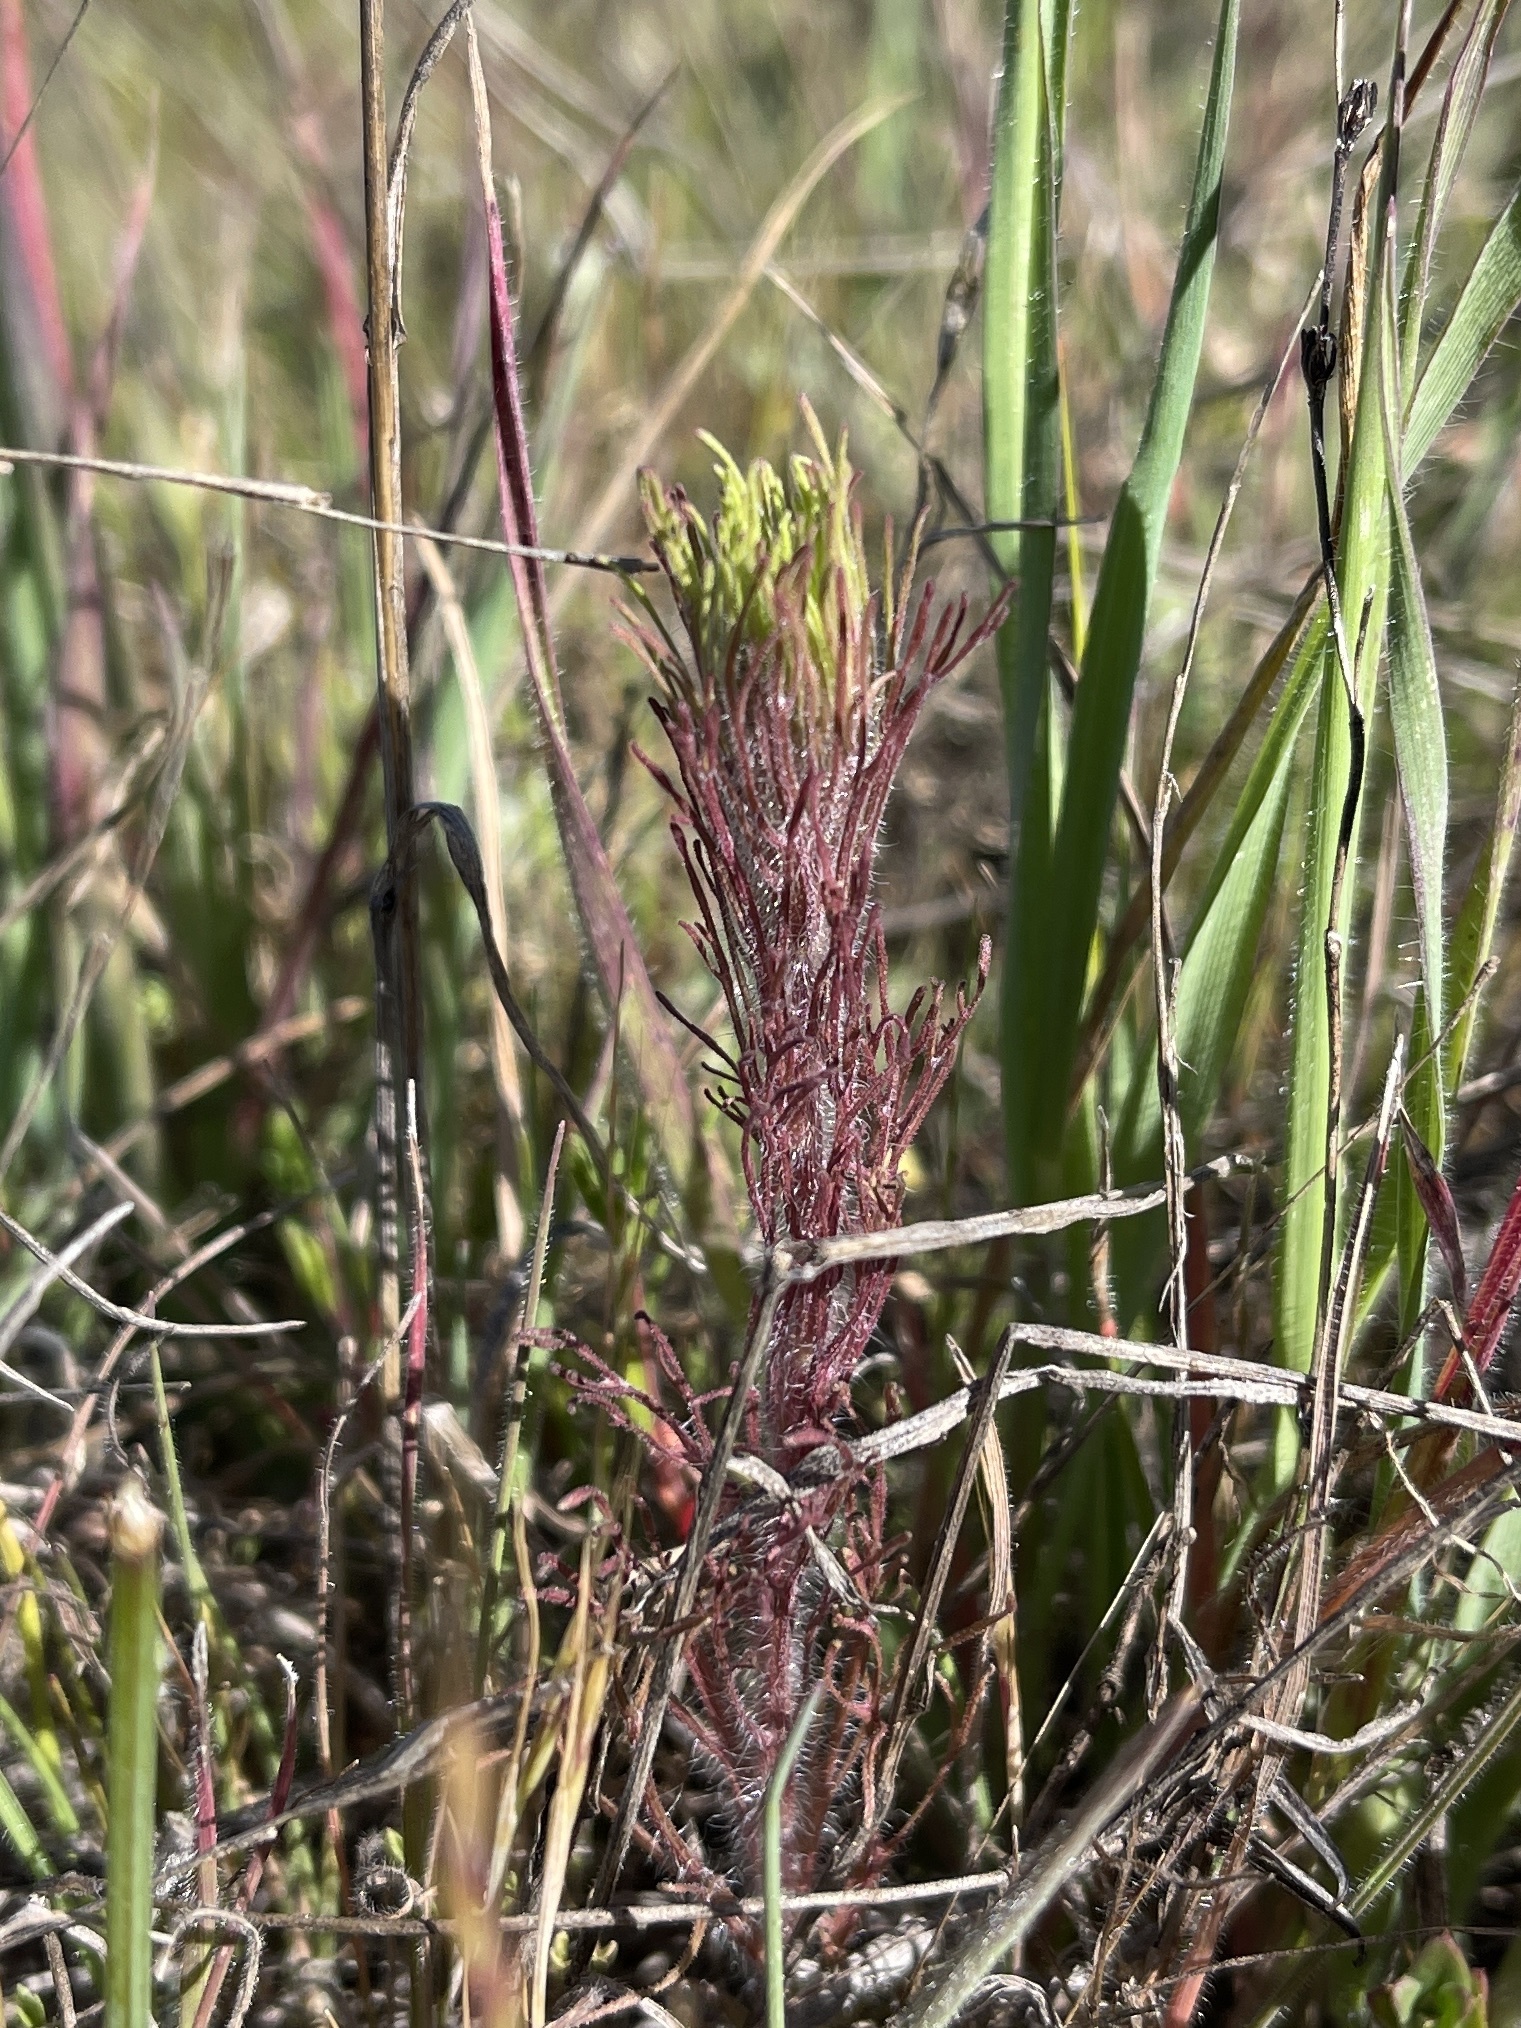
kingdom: Plantae
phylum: Tracheophyta
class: Magnoliopsida
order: Lamiales
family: Orobanchaceae
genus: Castilleja
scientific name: Castilleja exserta
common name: Purple owl-clover
